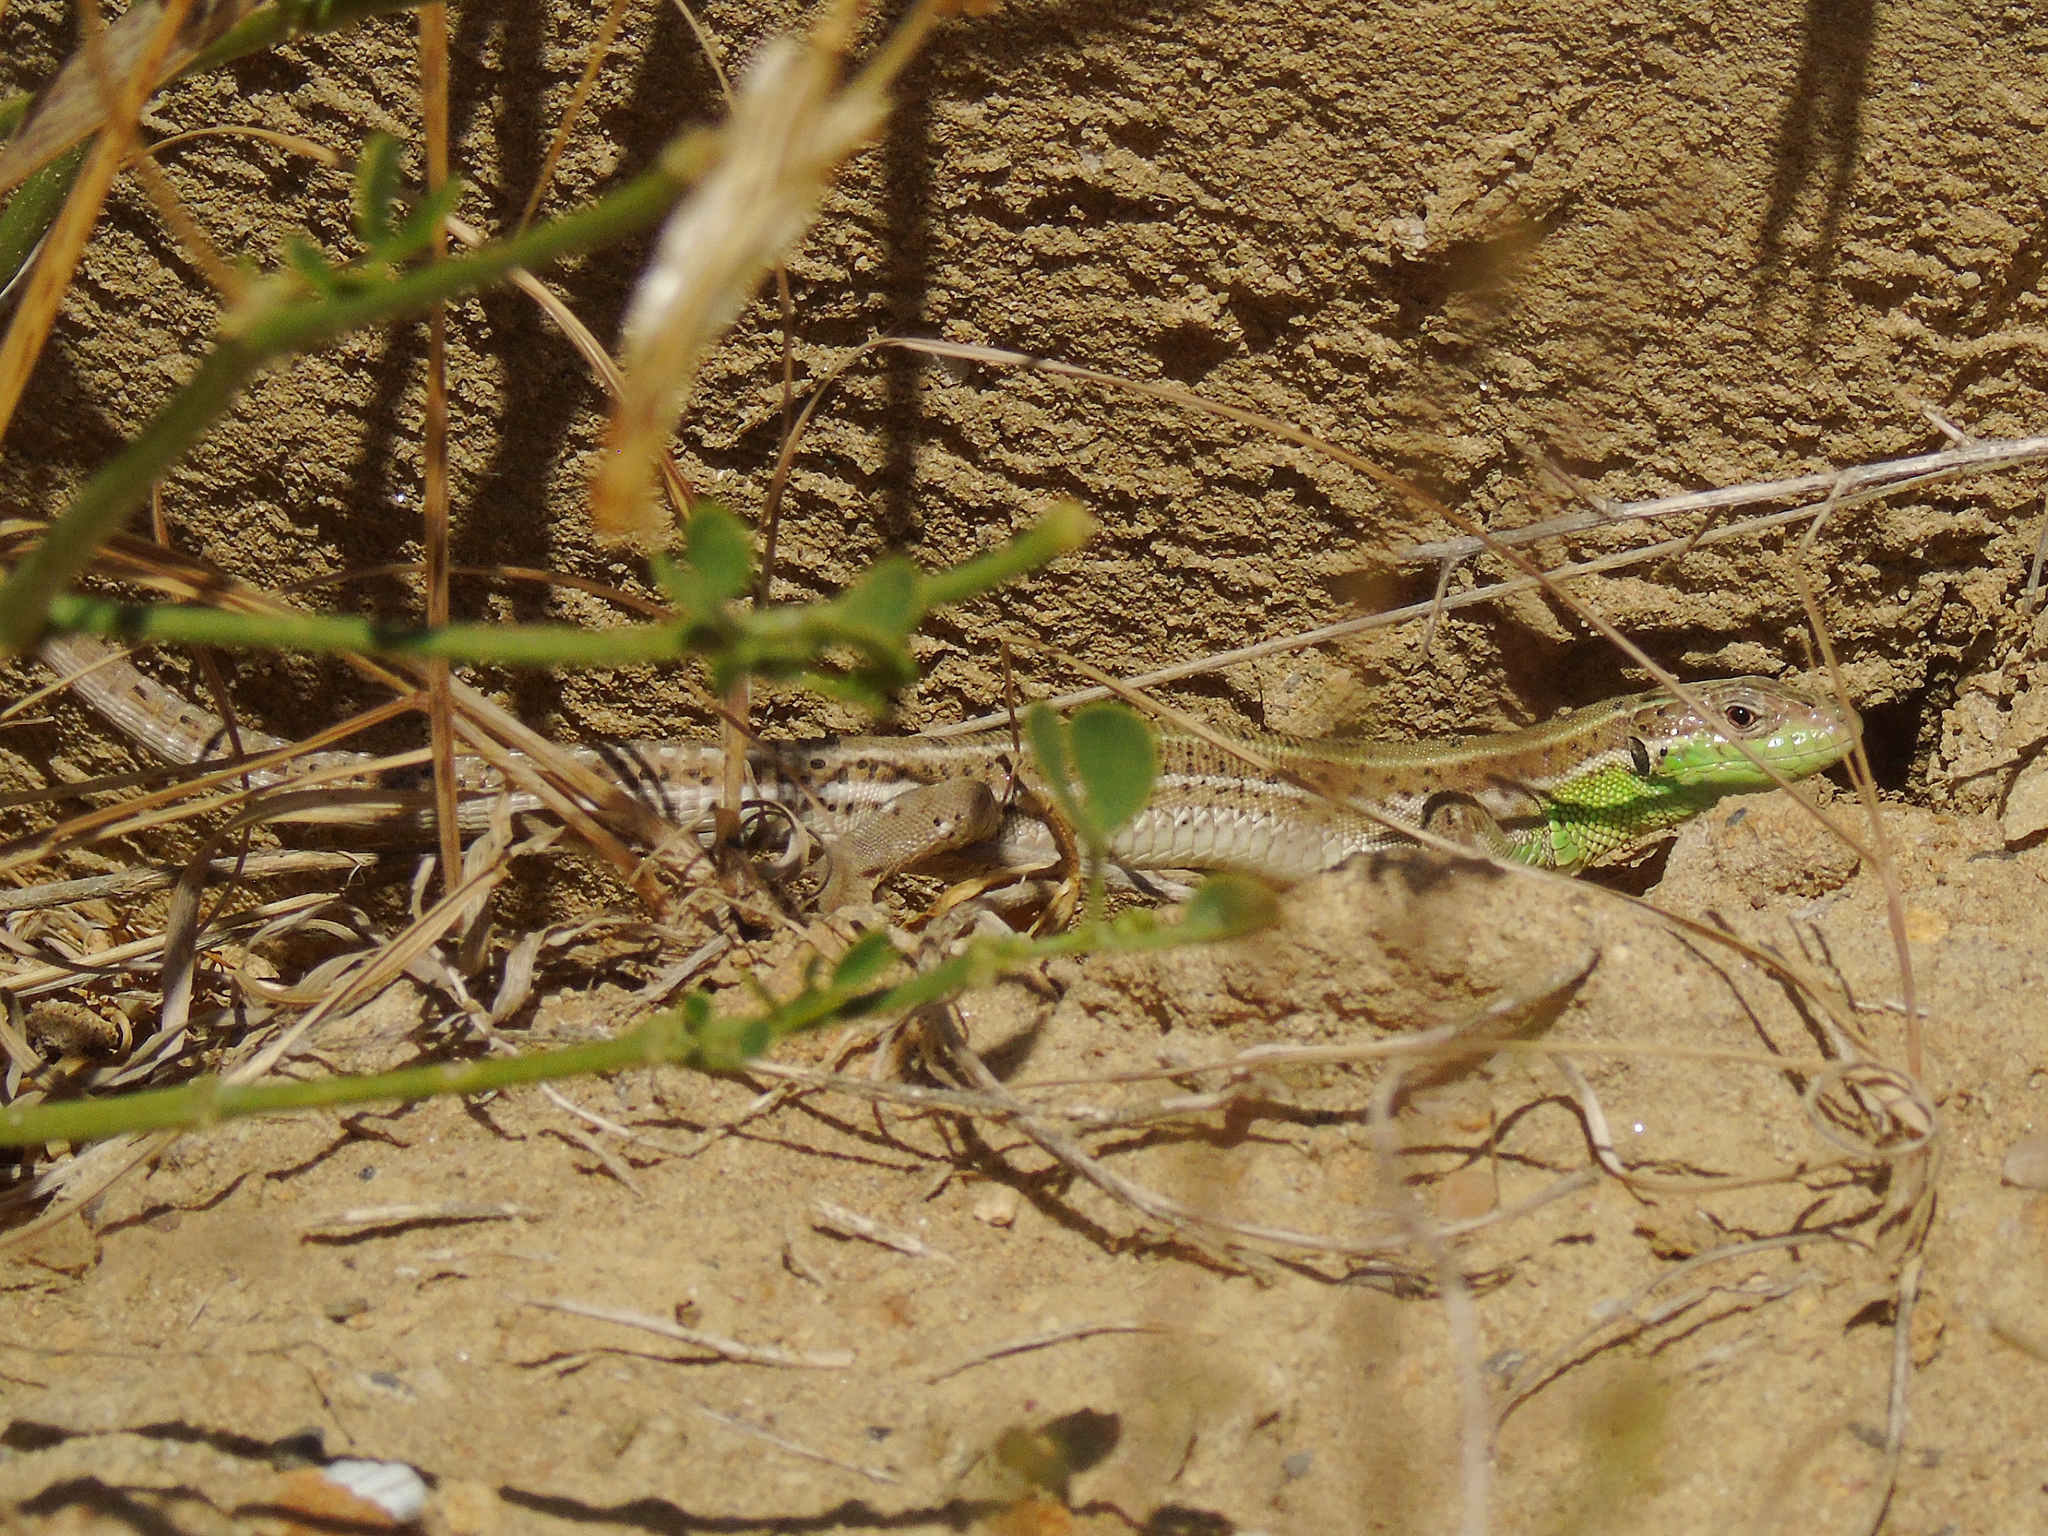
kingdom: Animalia
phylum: Chordata
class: Squamata
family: Lacertidae
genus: Lacerta
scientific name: Lacerta strigata
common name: Caspian green lizard
